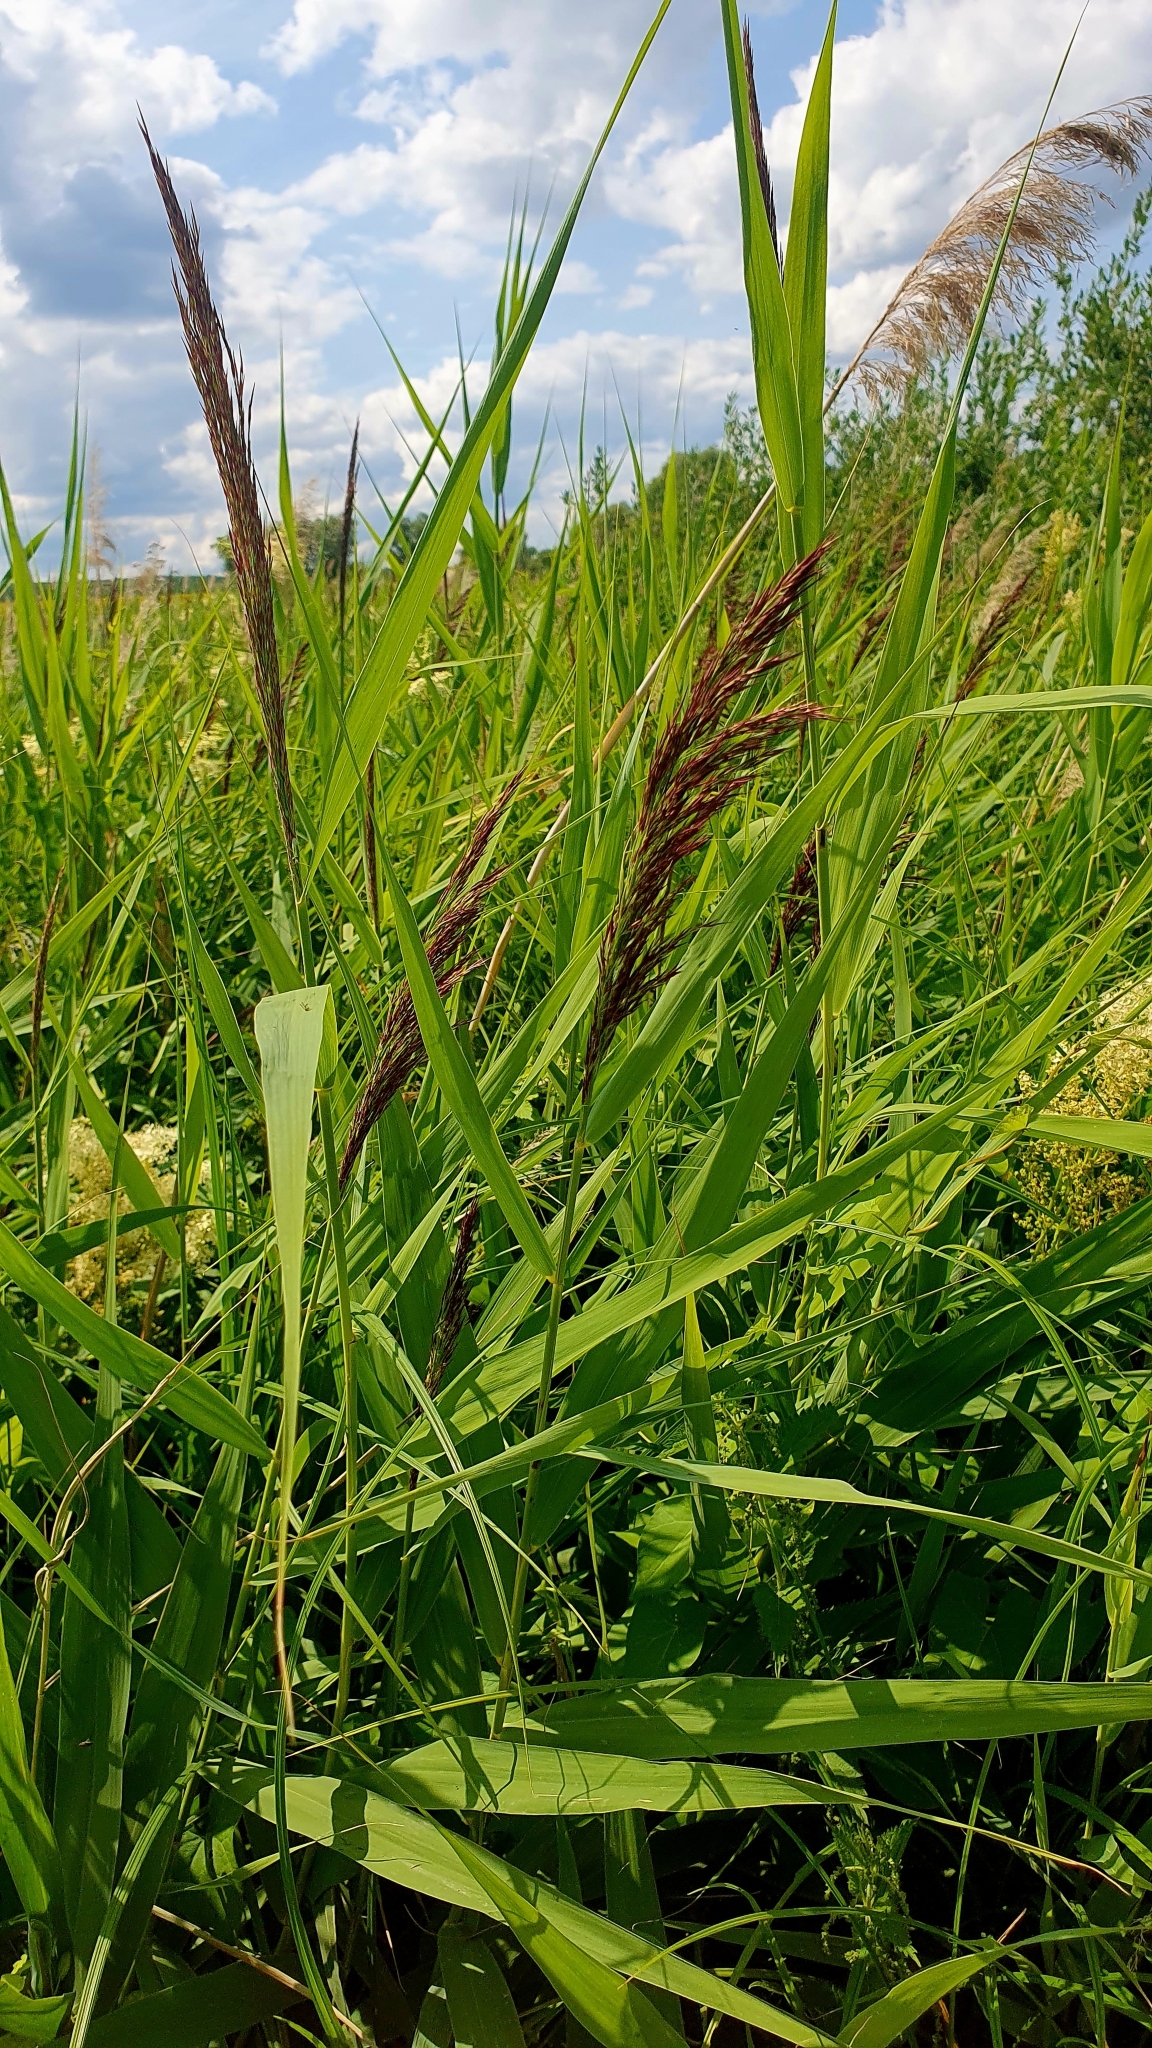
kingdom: Plantae
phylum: Tracheophyta
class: Liliopsida
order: Poales
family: Poaceae
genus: Phragmites
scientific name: Phragmites australis
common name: Common reed
